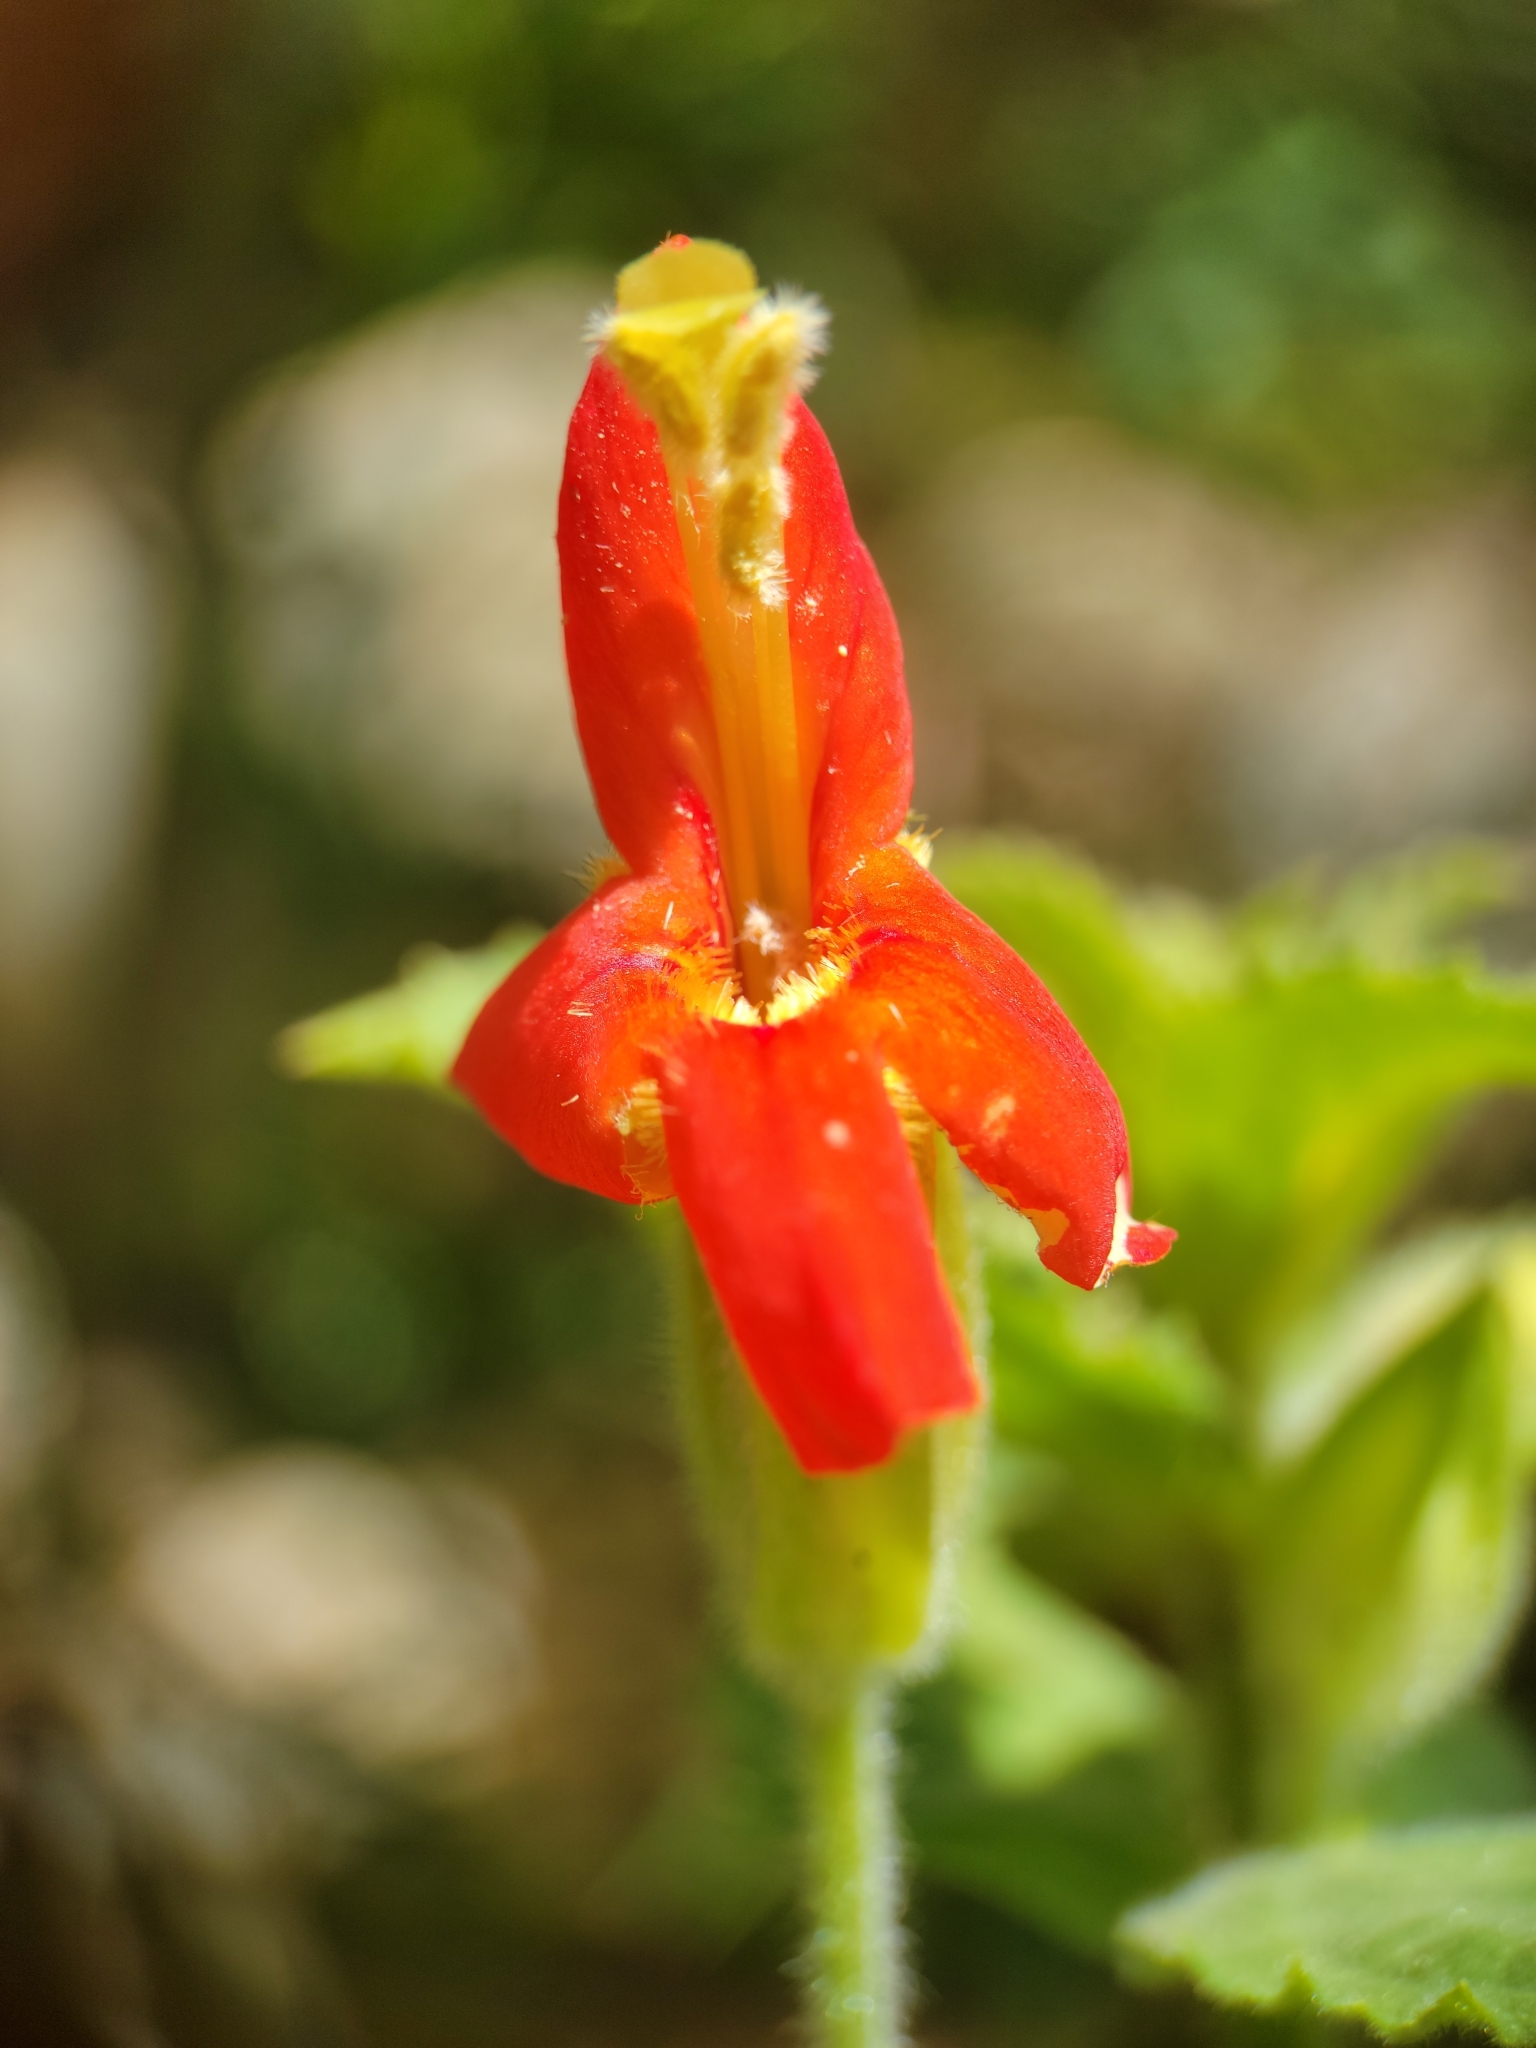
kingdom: Plantae
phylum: Tracheophyta
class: Magnoliopsida
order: Lamiales
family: Phrymaceae
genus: Erythranthe
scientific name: Erythranthe cardinalis
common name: Scarlet monkey-flower
